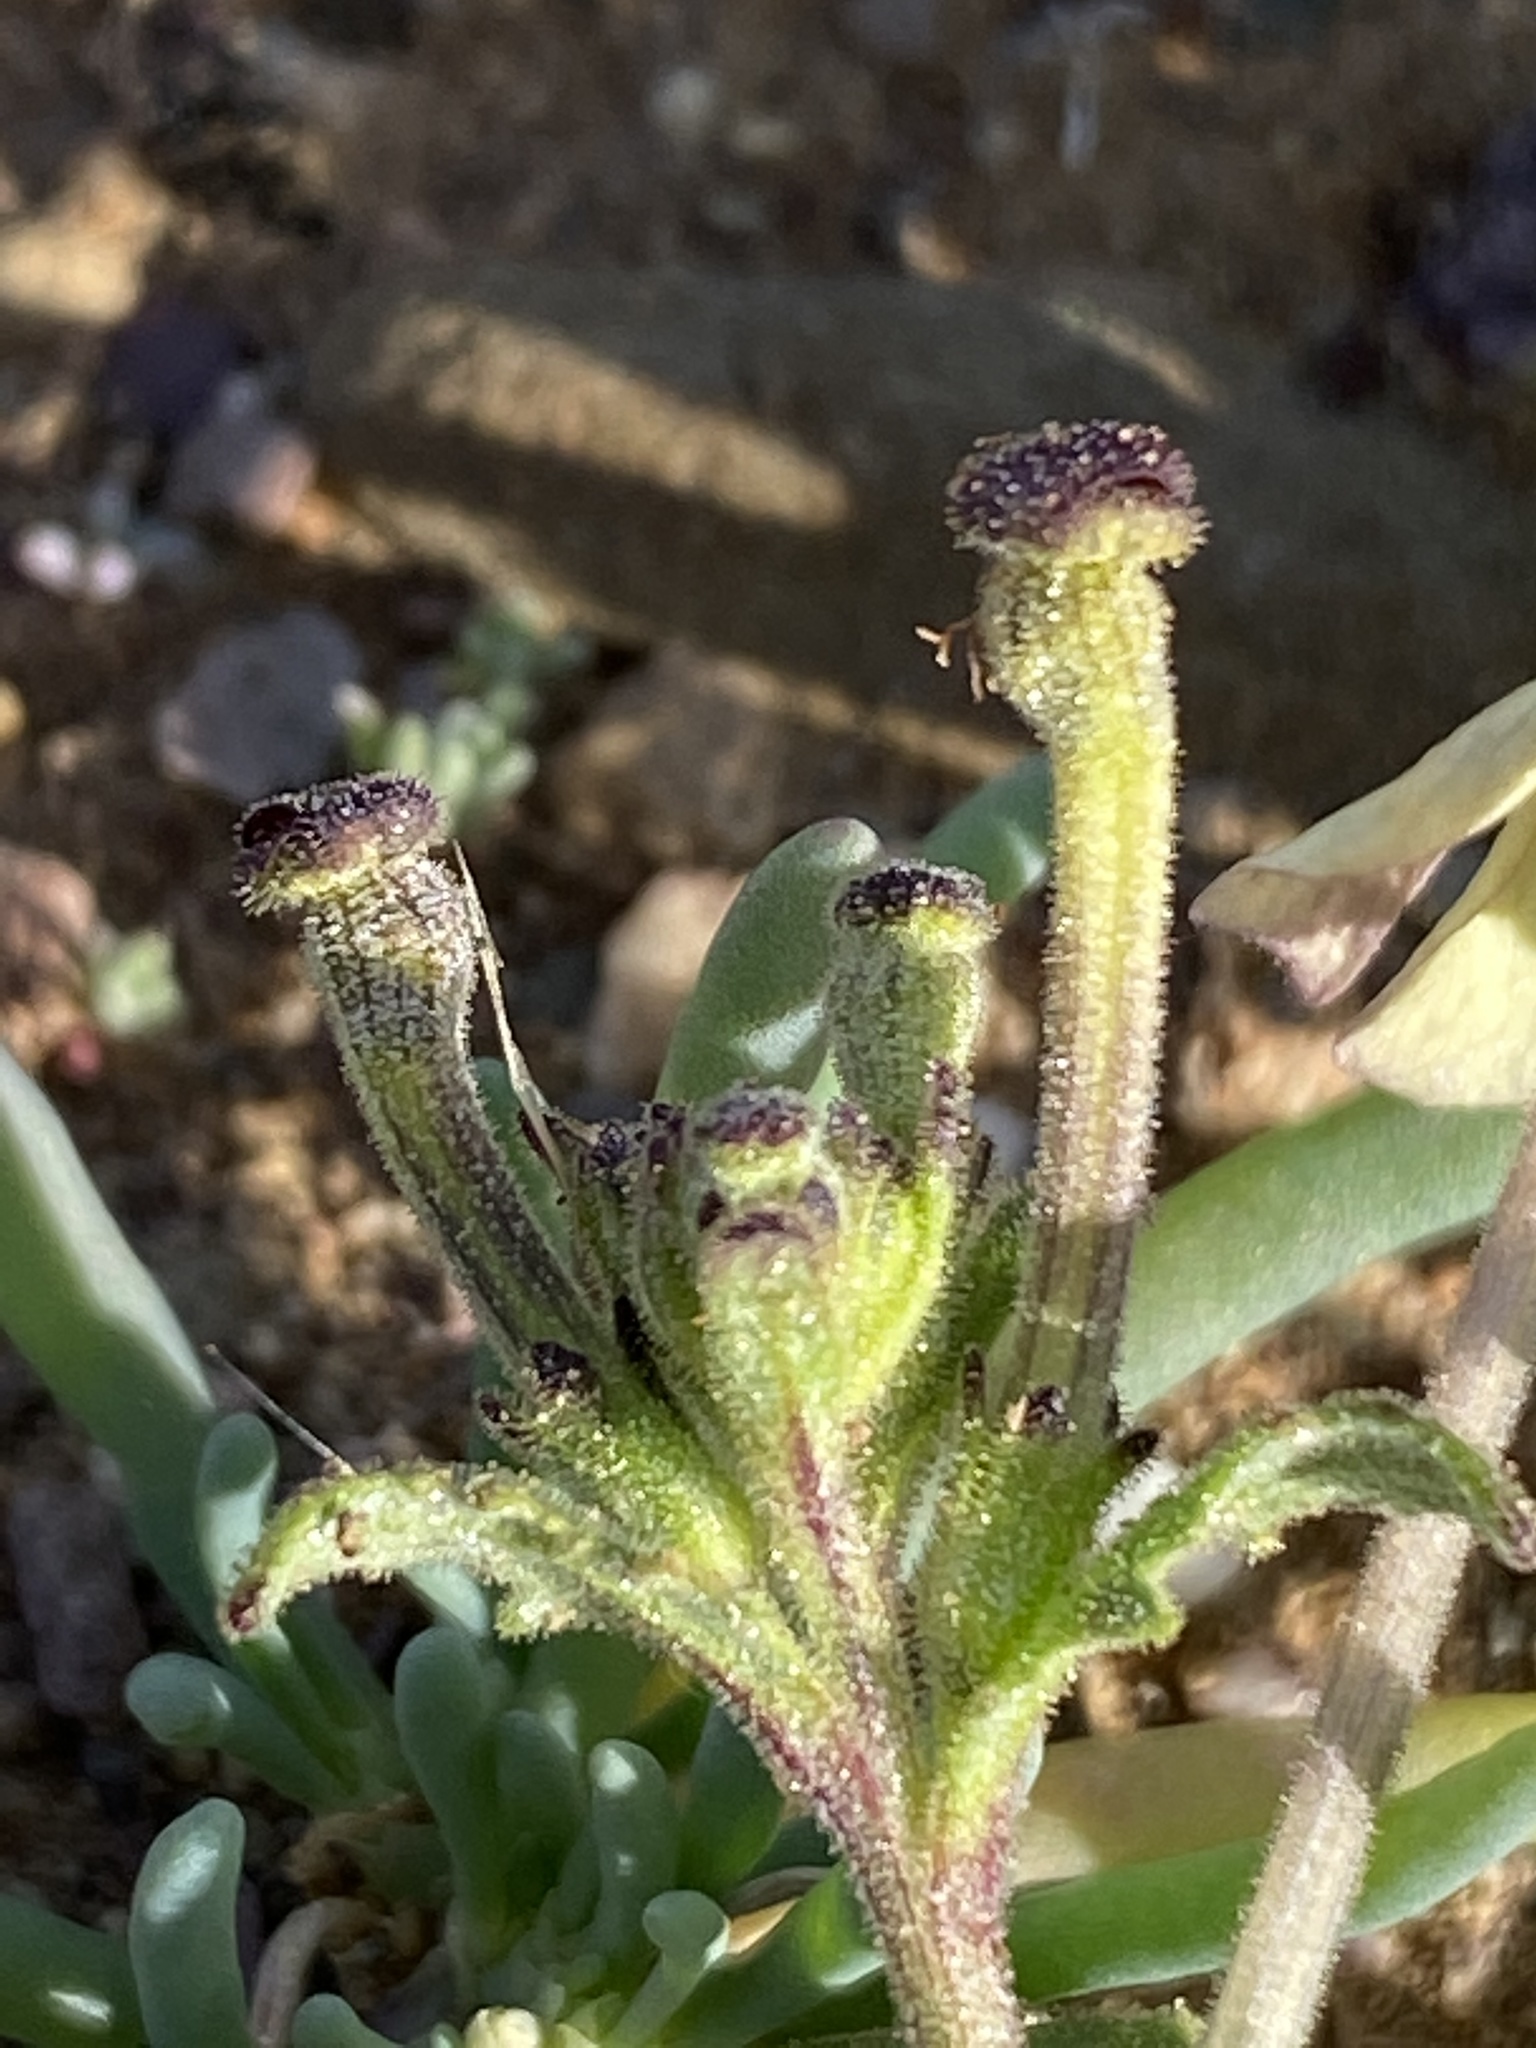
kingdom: Plantae
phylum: Tracheophyta
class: Magnoliopsida
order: Lamiales
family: Scrophulariaceae
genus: Lyperia
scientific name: Lyperia tristis
